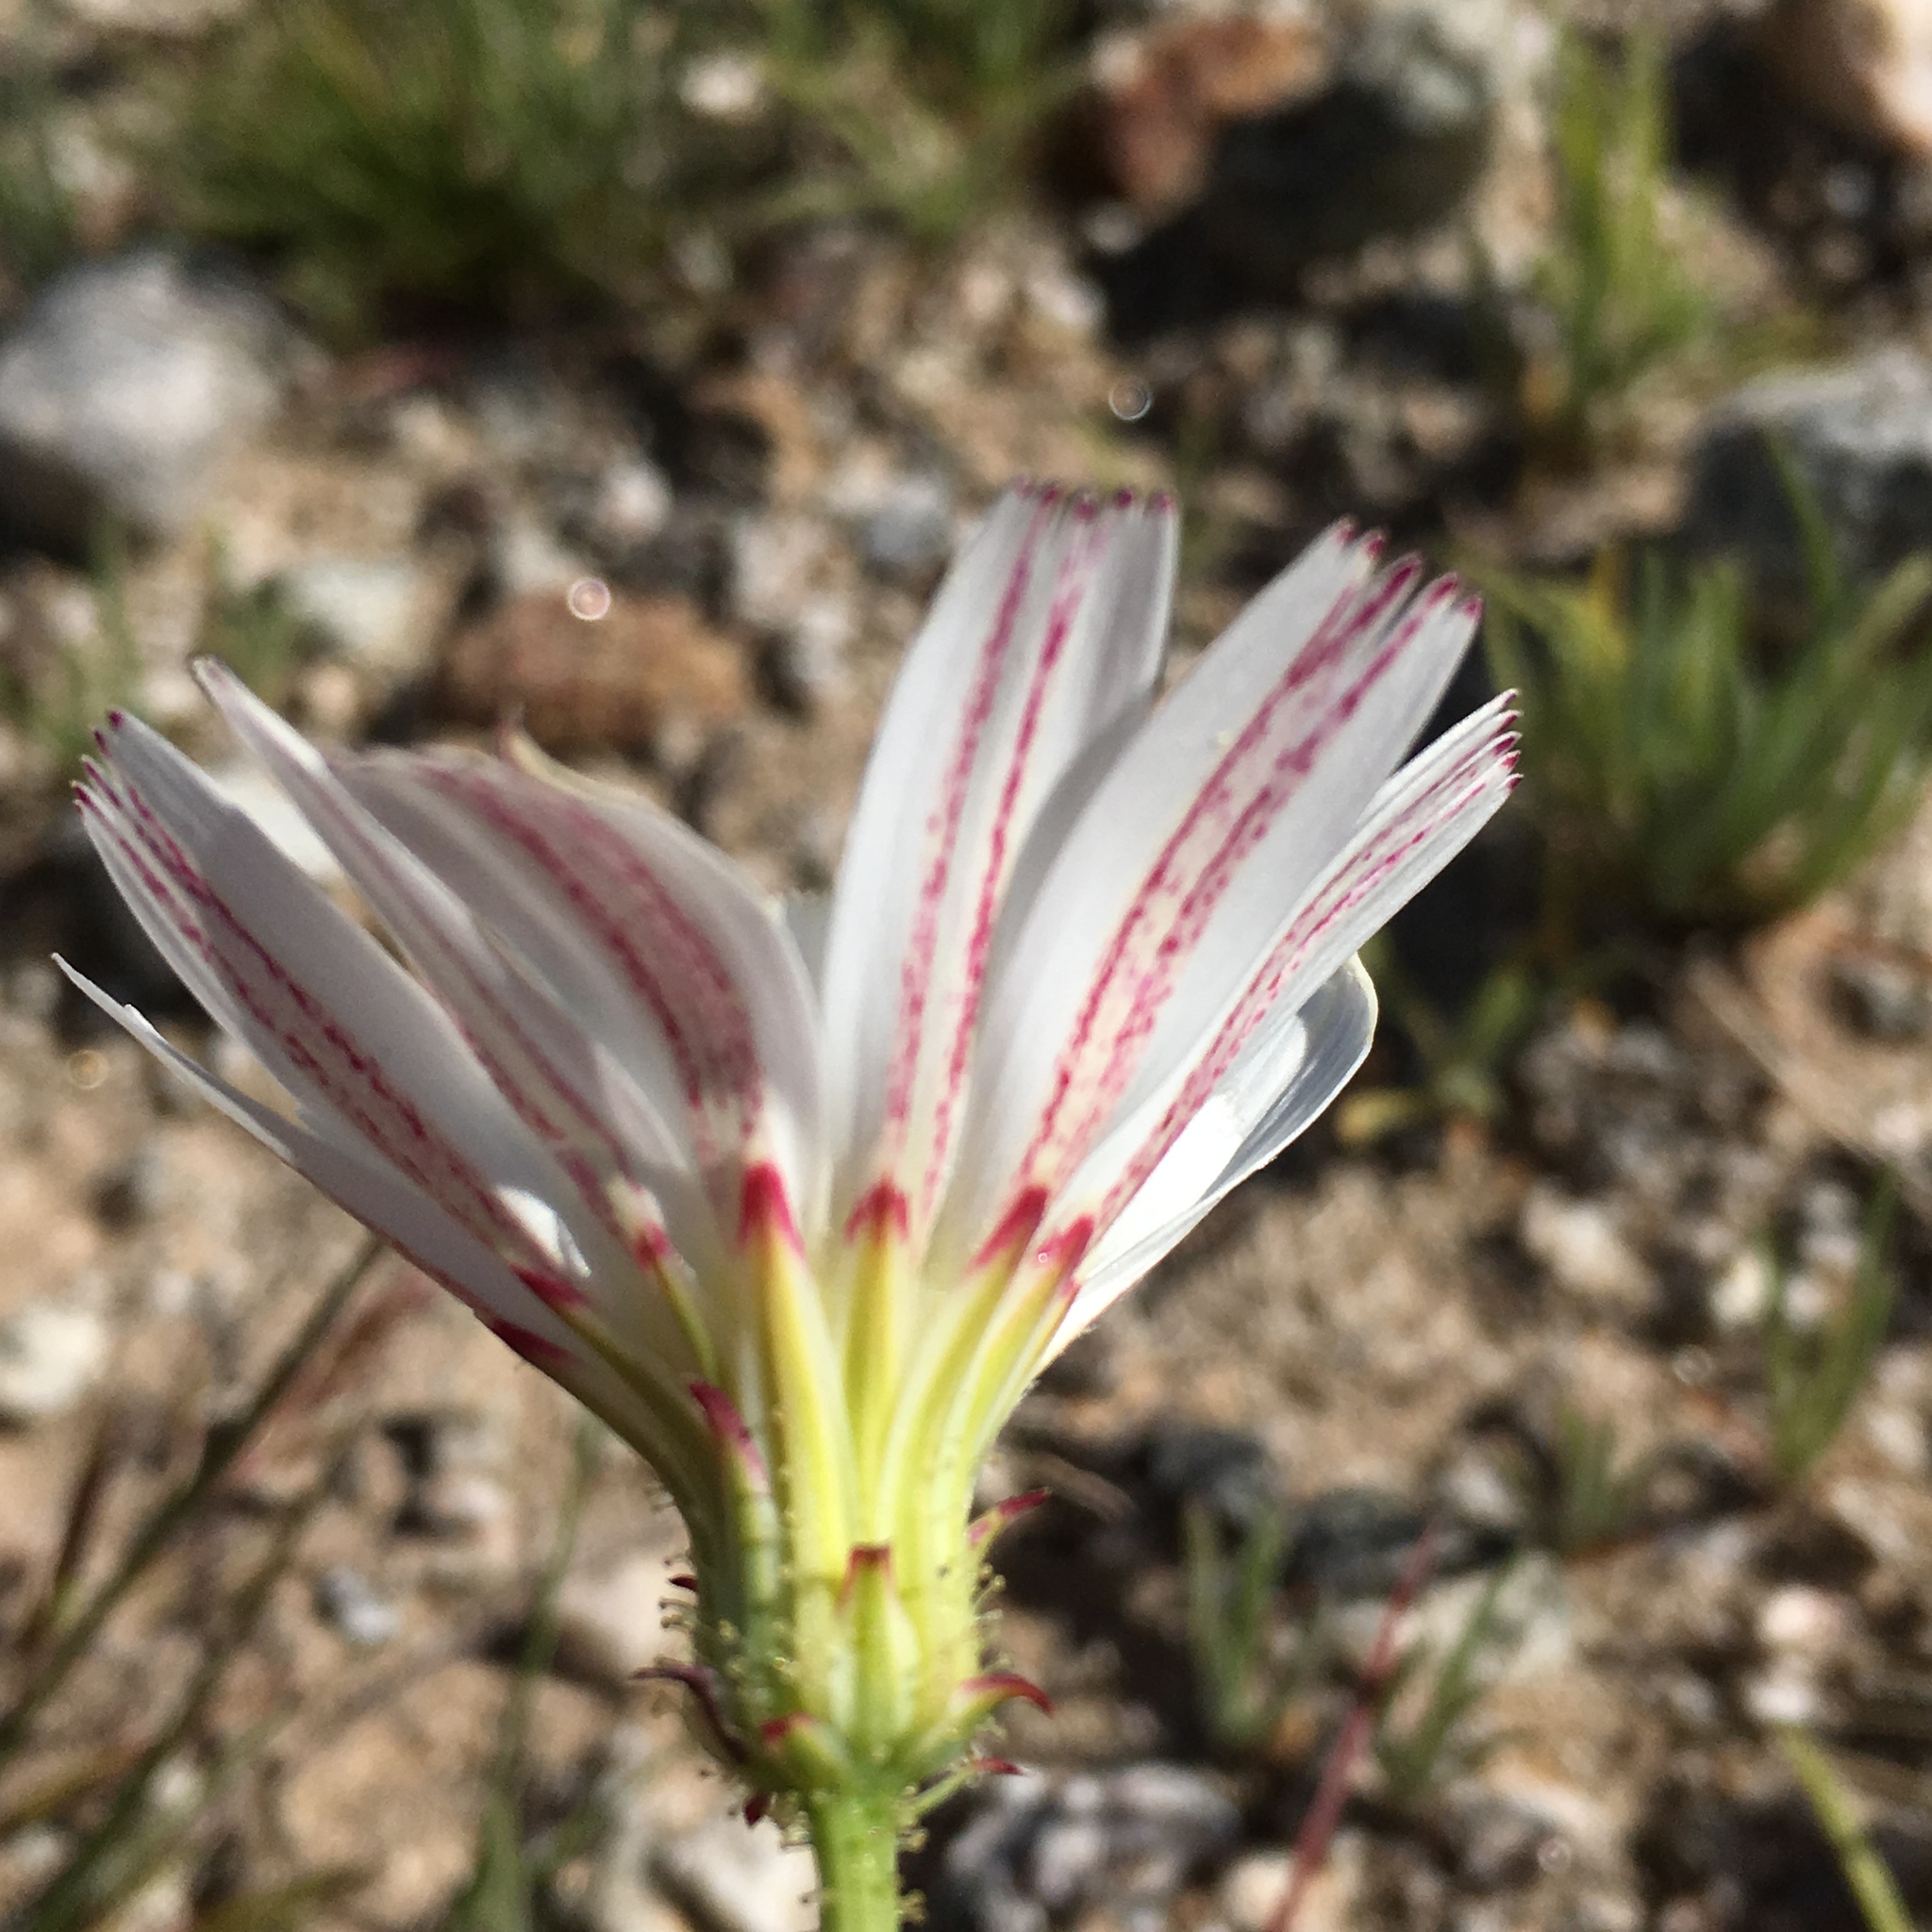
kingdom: Plantae
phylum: Tracheophyta
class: Magnoliopsida
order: Asterales
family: Asteraceae
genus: Calycoseris
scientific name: Calycoseris wrightii
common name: White tackstem
